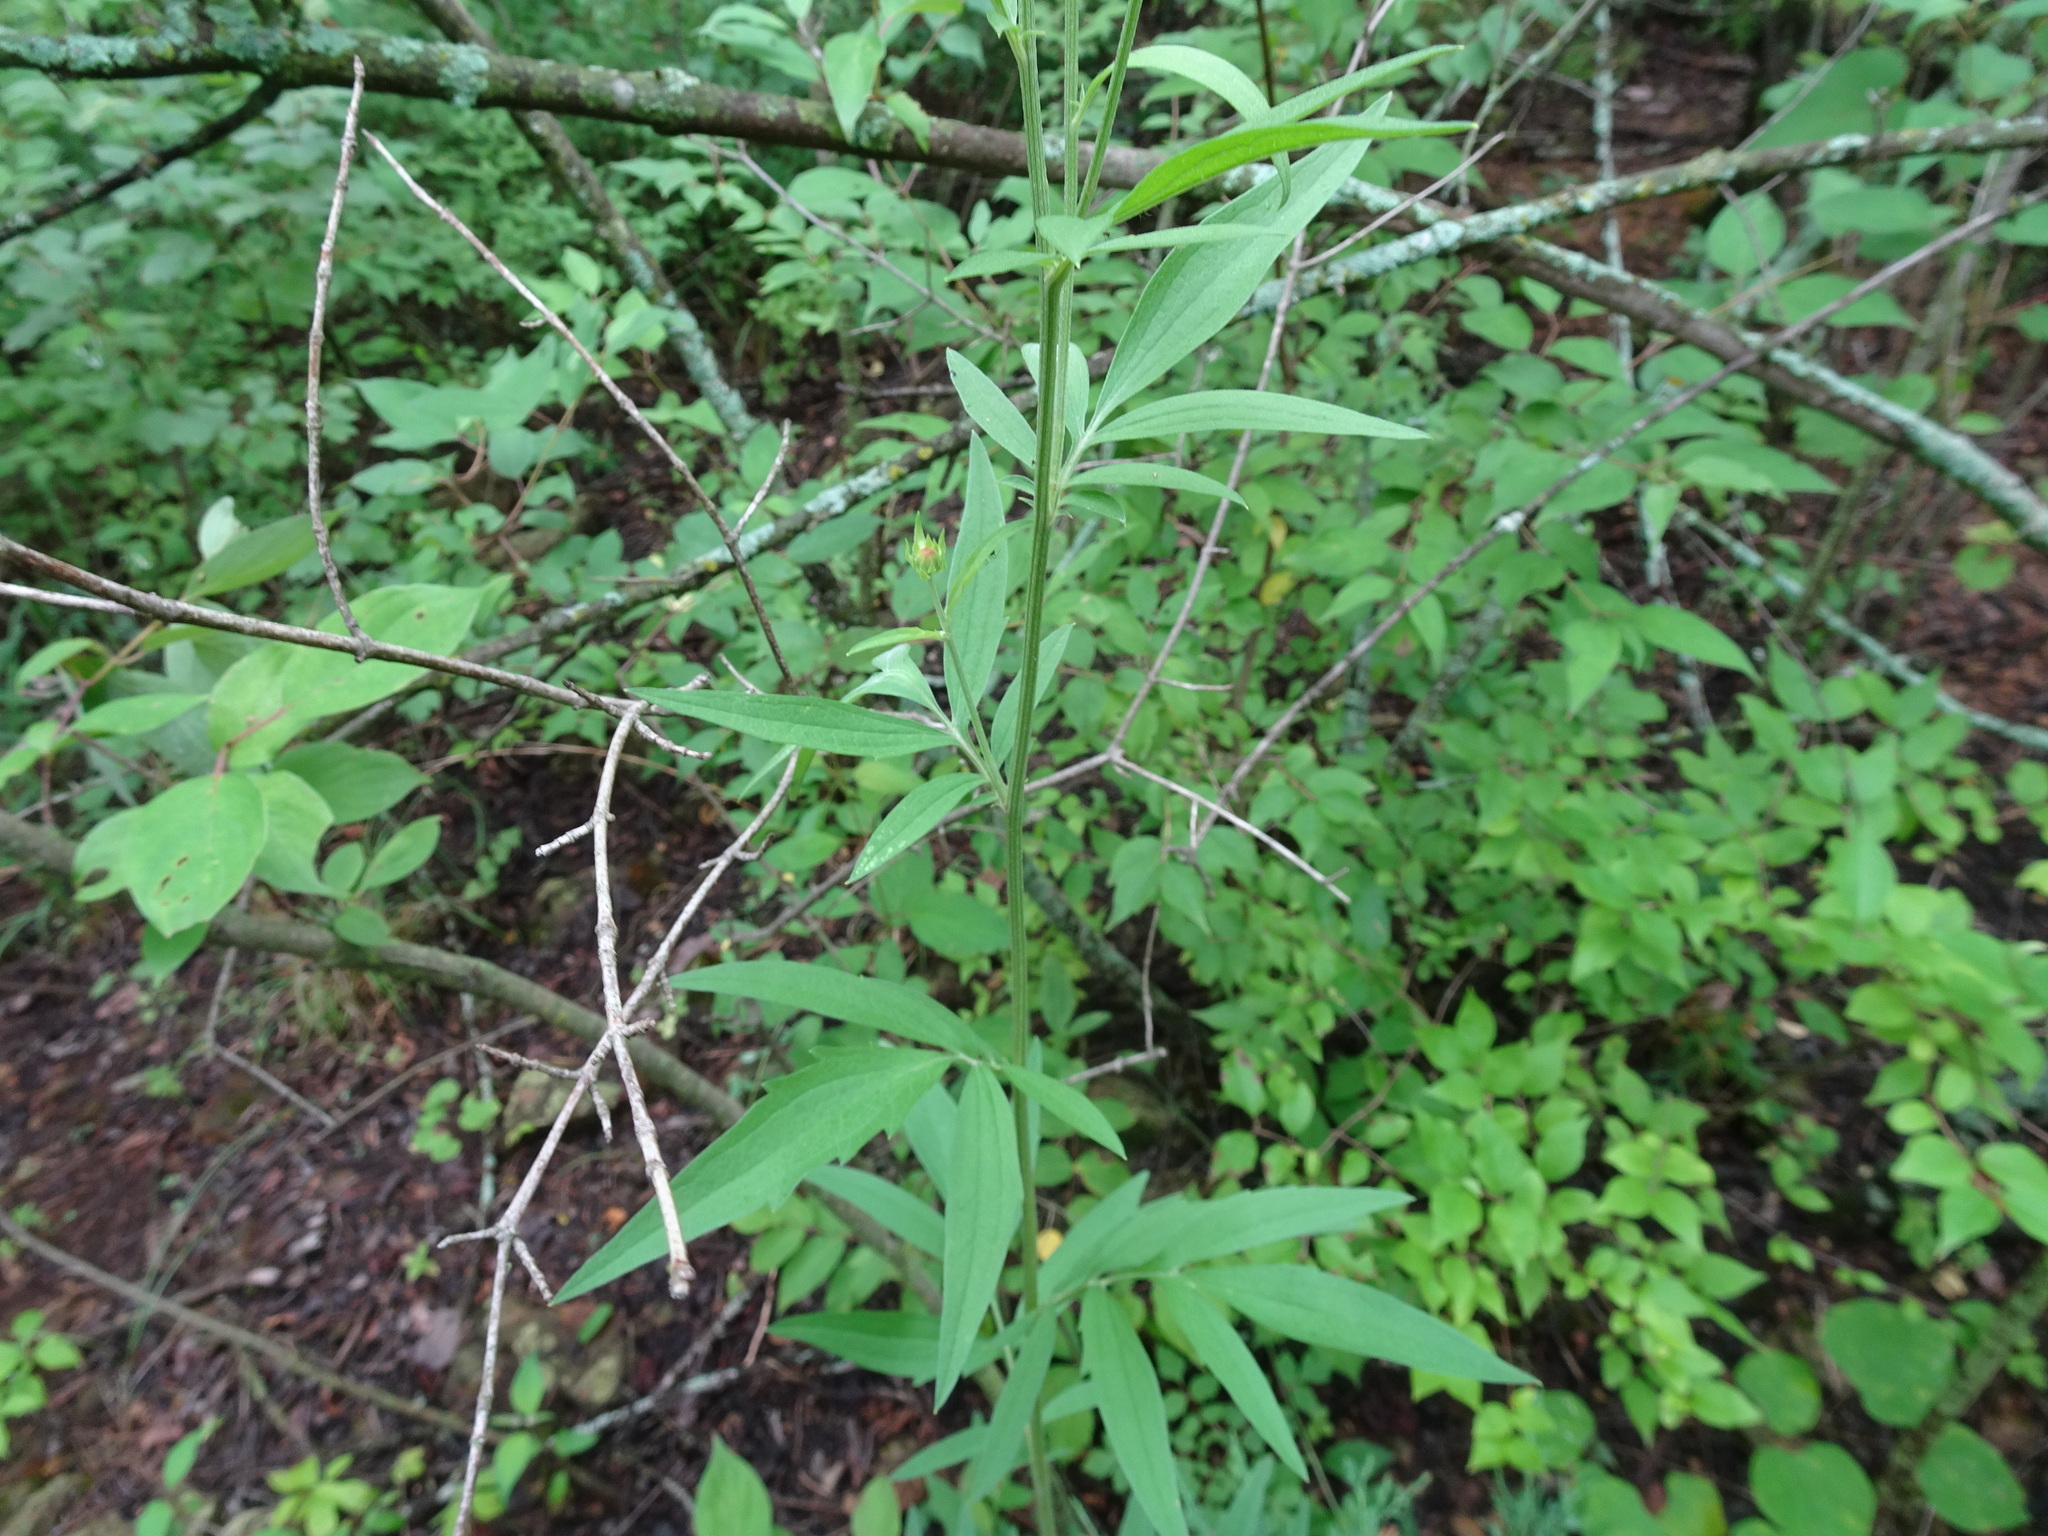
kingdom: Plantae
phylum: Tracheophyta
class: Magnoliopsida
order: Asterales
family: Asteraceae
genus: Ratibida
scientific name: Ratibida pinnata
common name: Drooping prairie-coneflower
